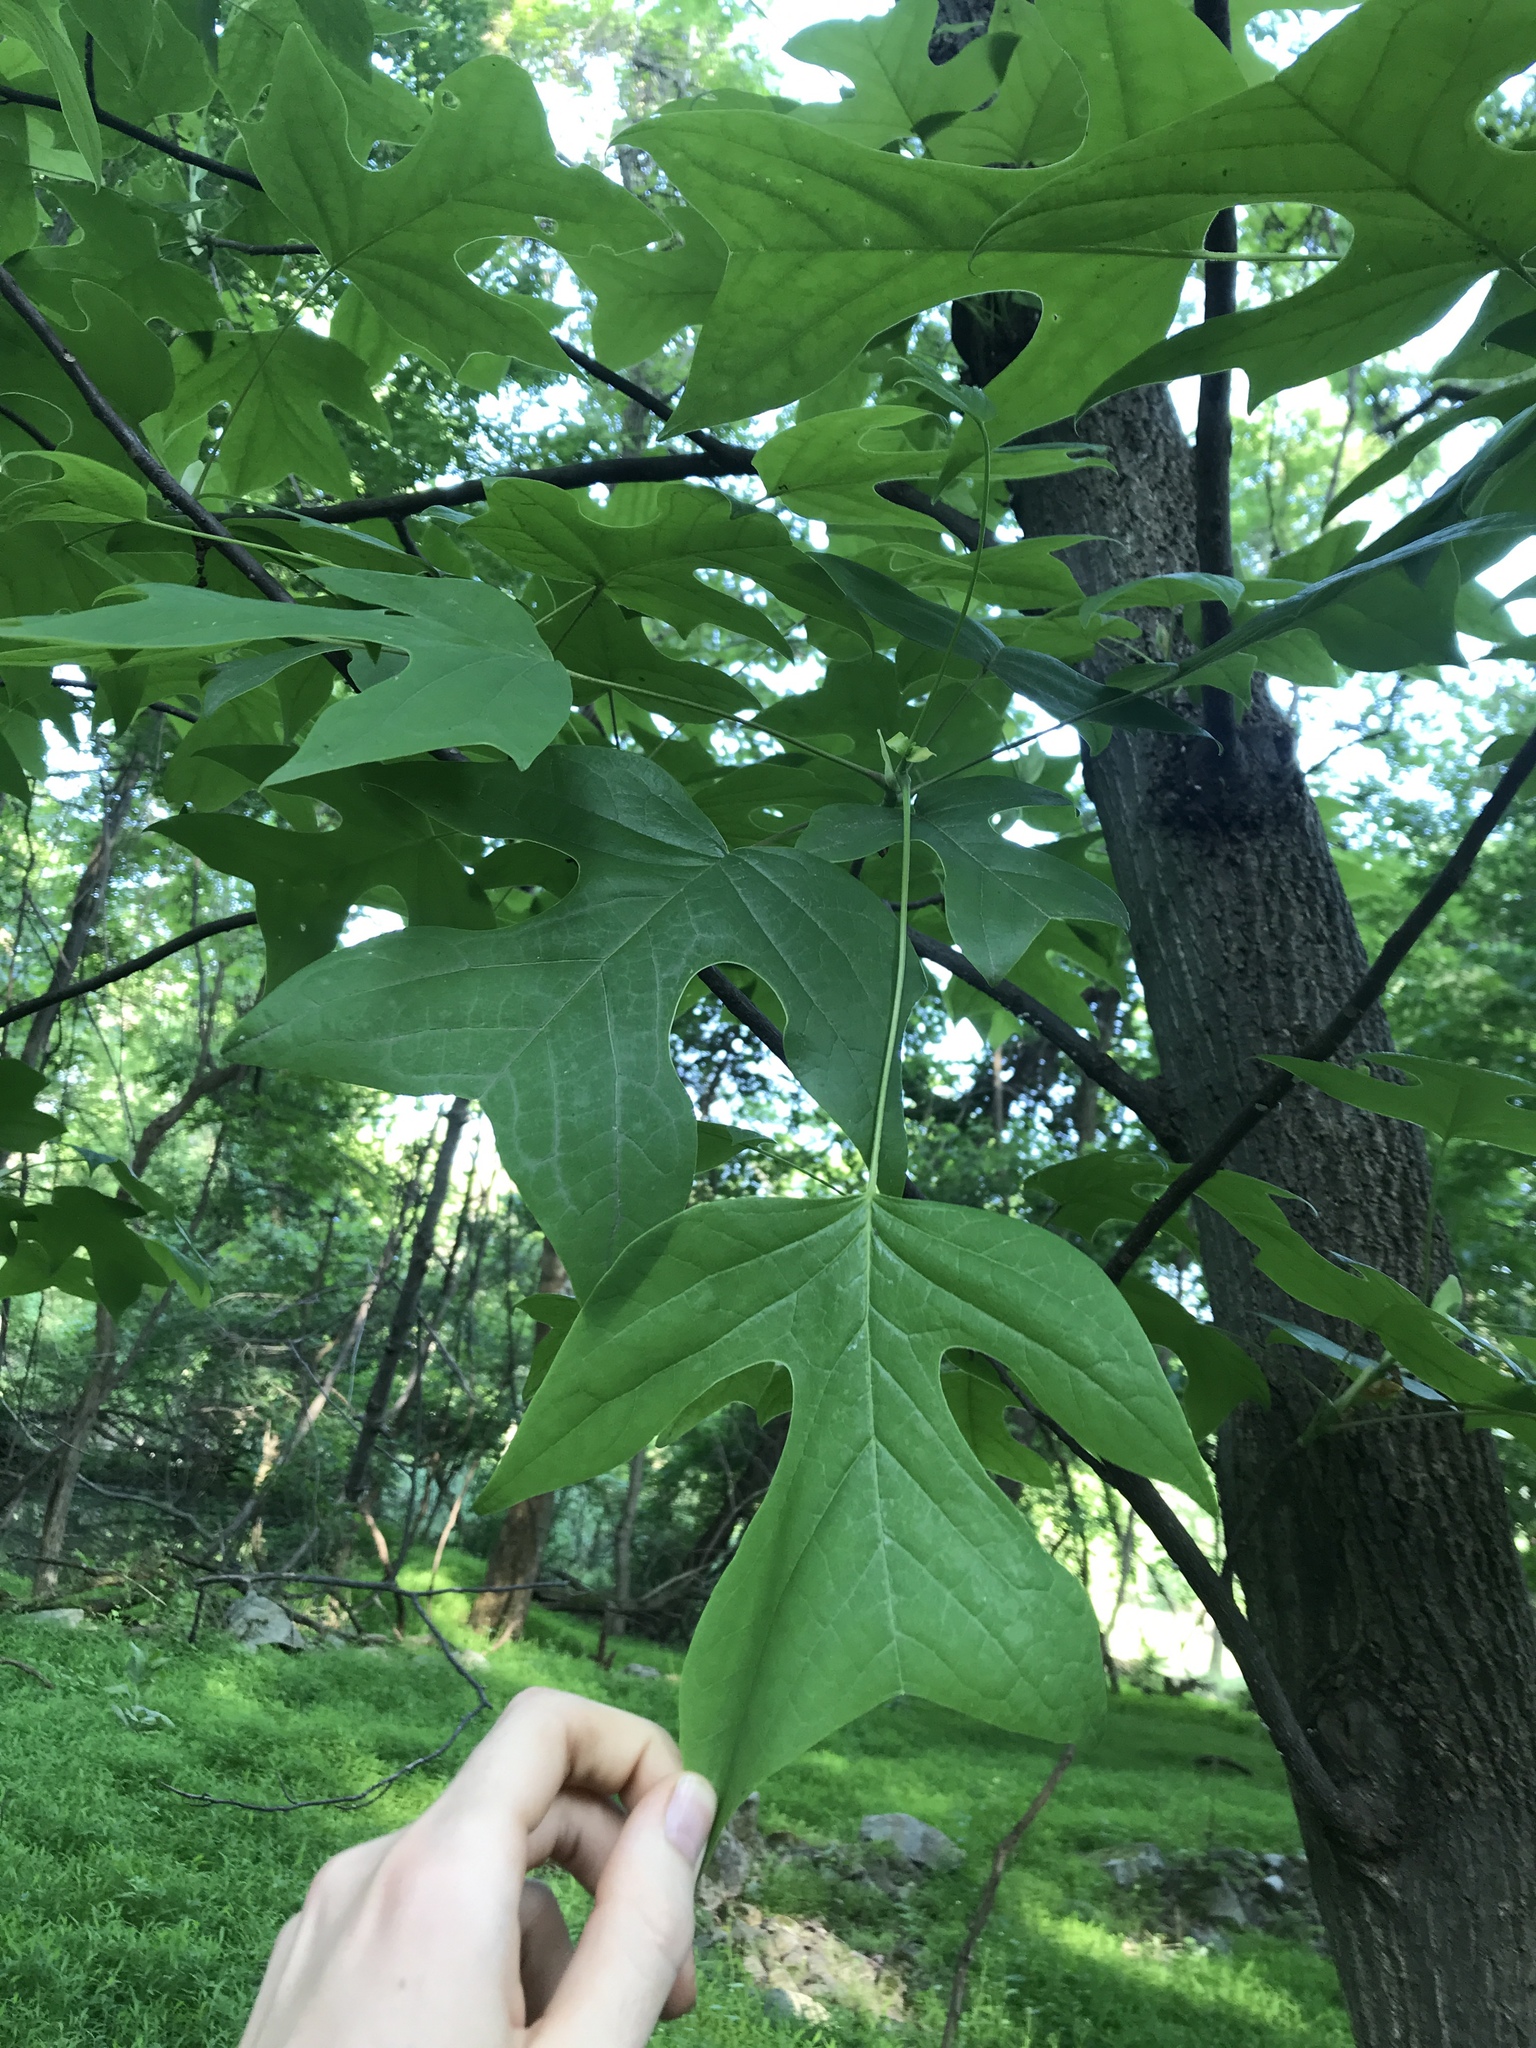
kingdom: Plantae
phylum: Tracheophyta
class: Magnoliopsida
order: Magnoliales
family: Magnoliaceae
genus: Liriodendron
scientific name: Liriodendron tulipifera
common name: Tulip tree
